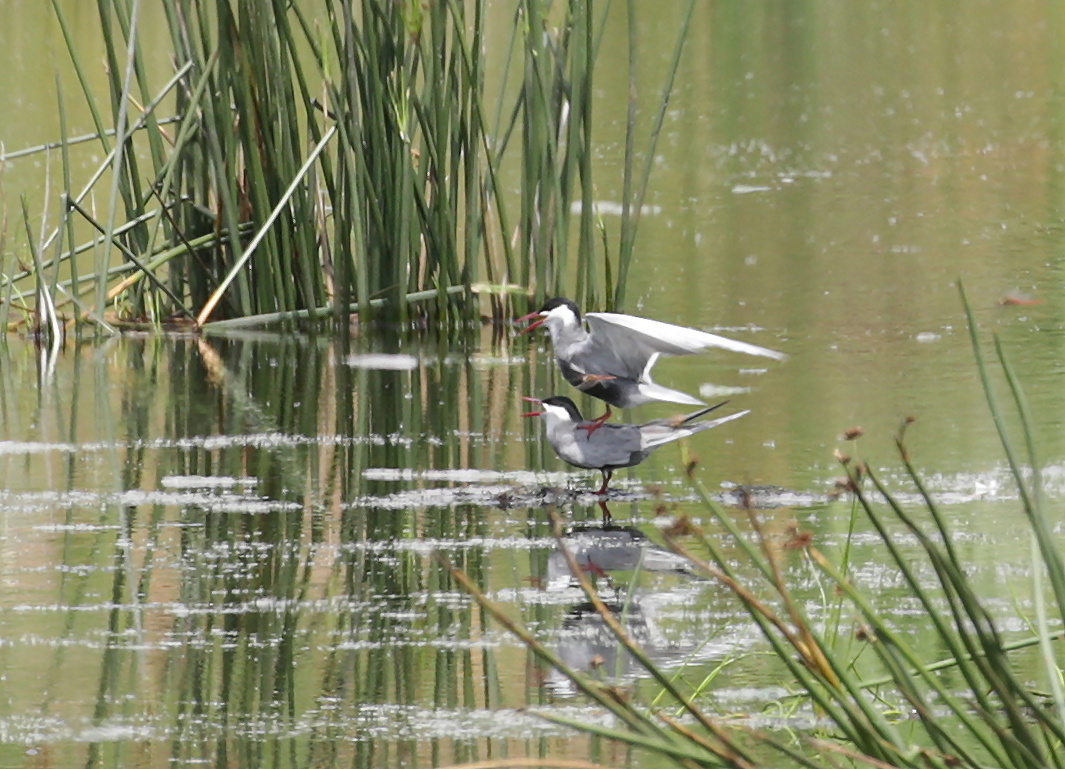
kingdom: Animalia
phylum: Chordata
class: Aves
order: Charadriiformes
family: Laridae
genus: Chlidonias
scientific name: Chlidonias hybrida
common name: Whiskered tern
